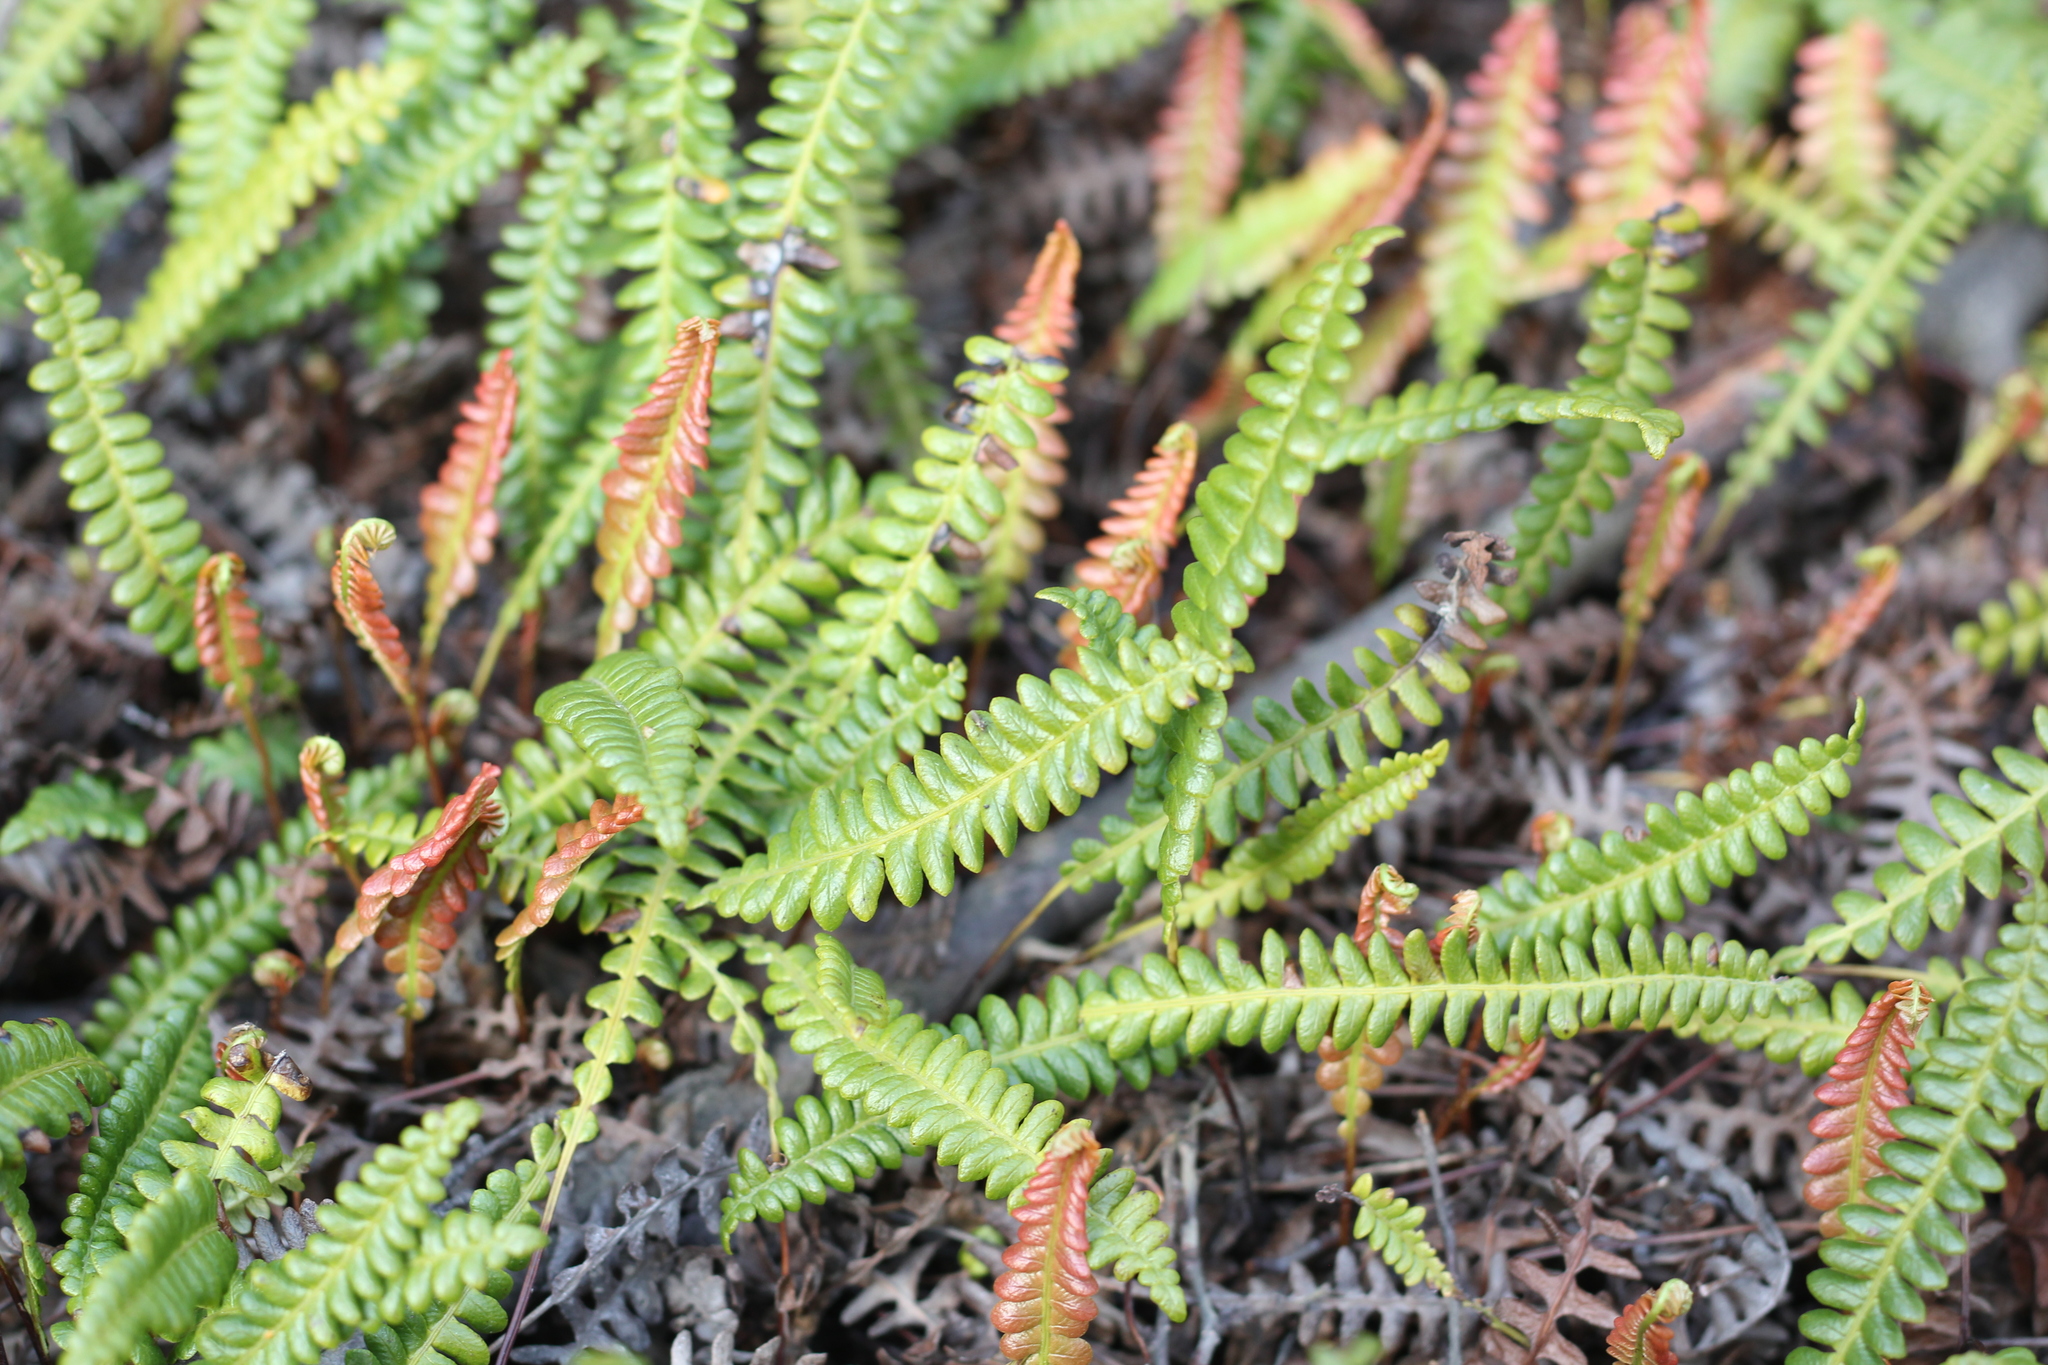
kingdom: Plantae
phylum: Tracheophyta
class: Polypodiopsida
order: Polypodiales
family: Blechnaceae
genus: Austroblechnum
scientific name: Austroblechnum penna-marina
